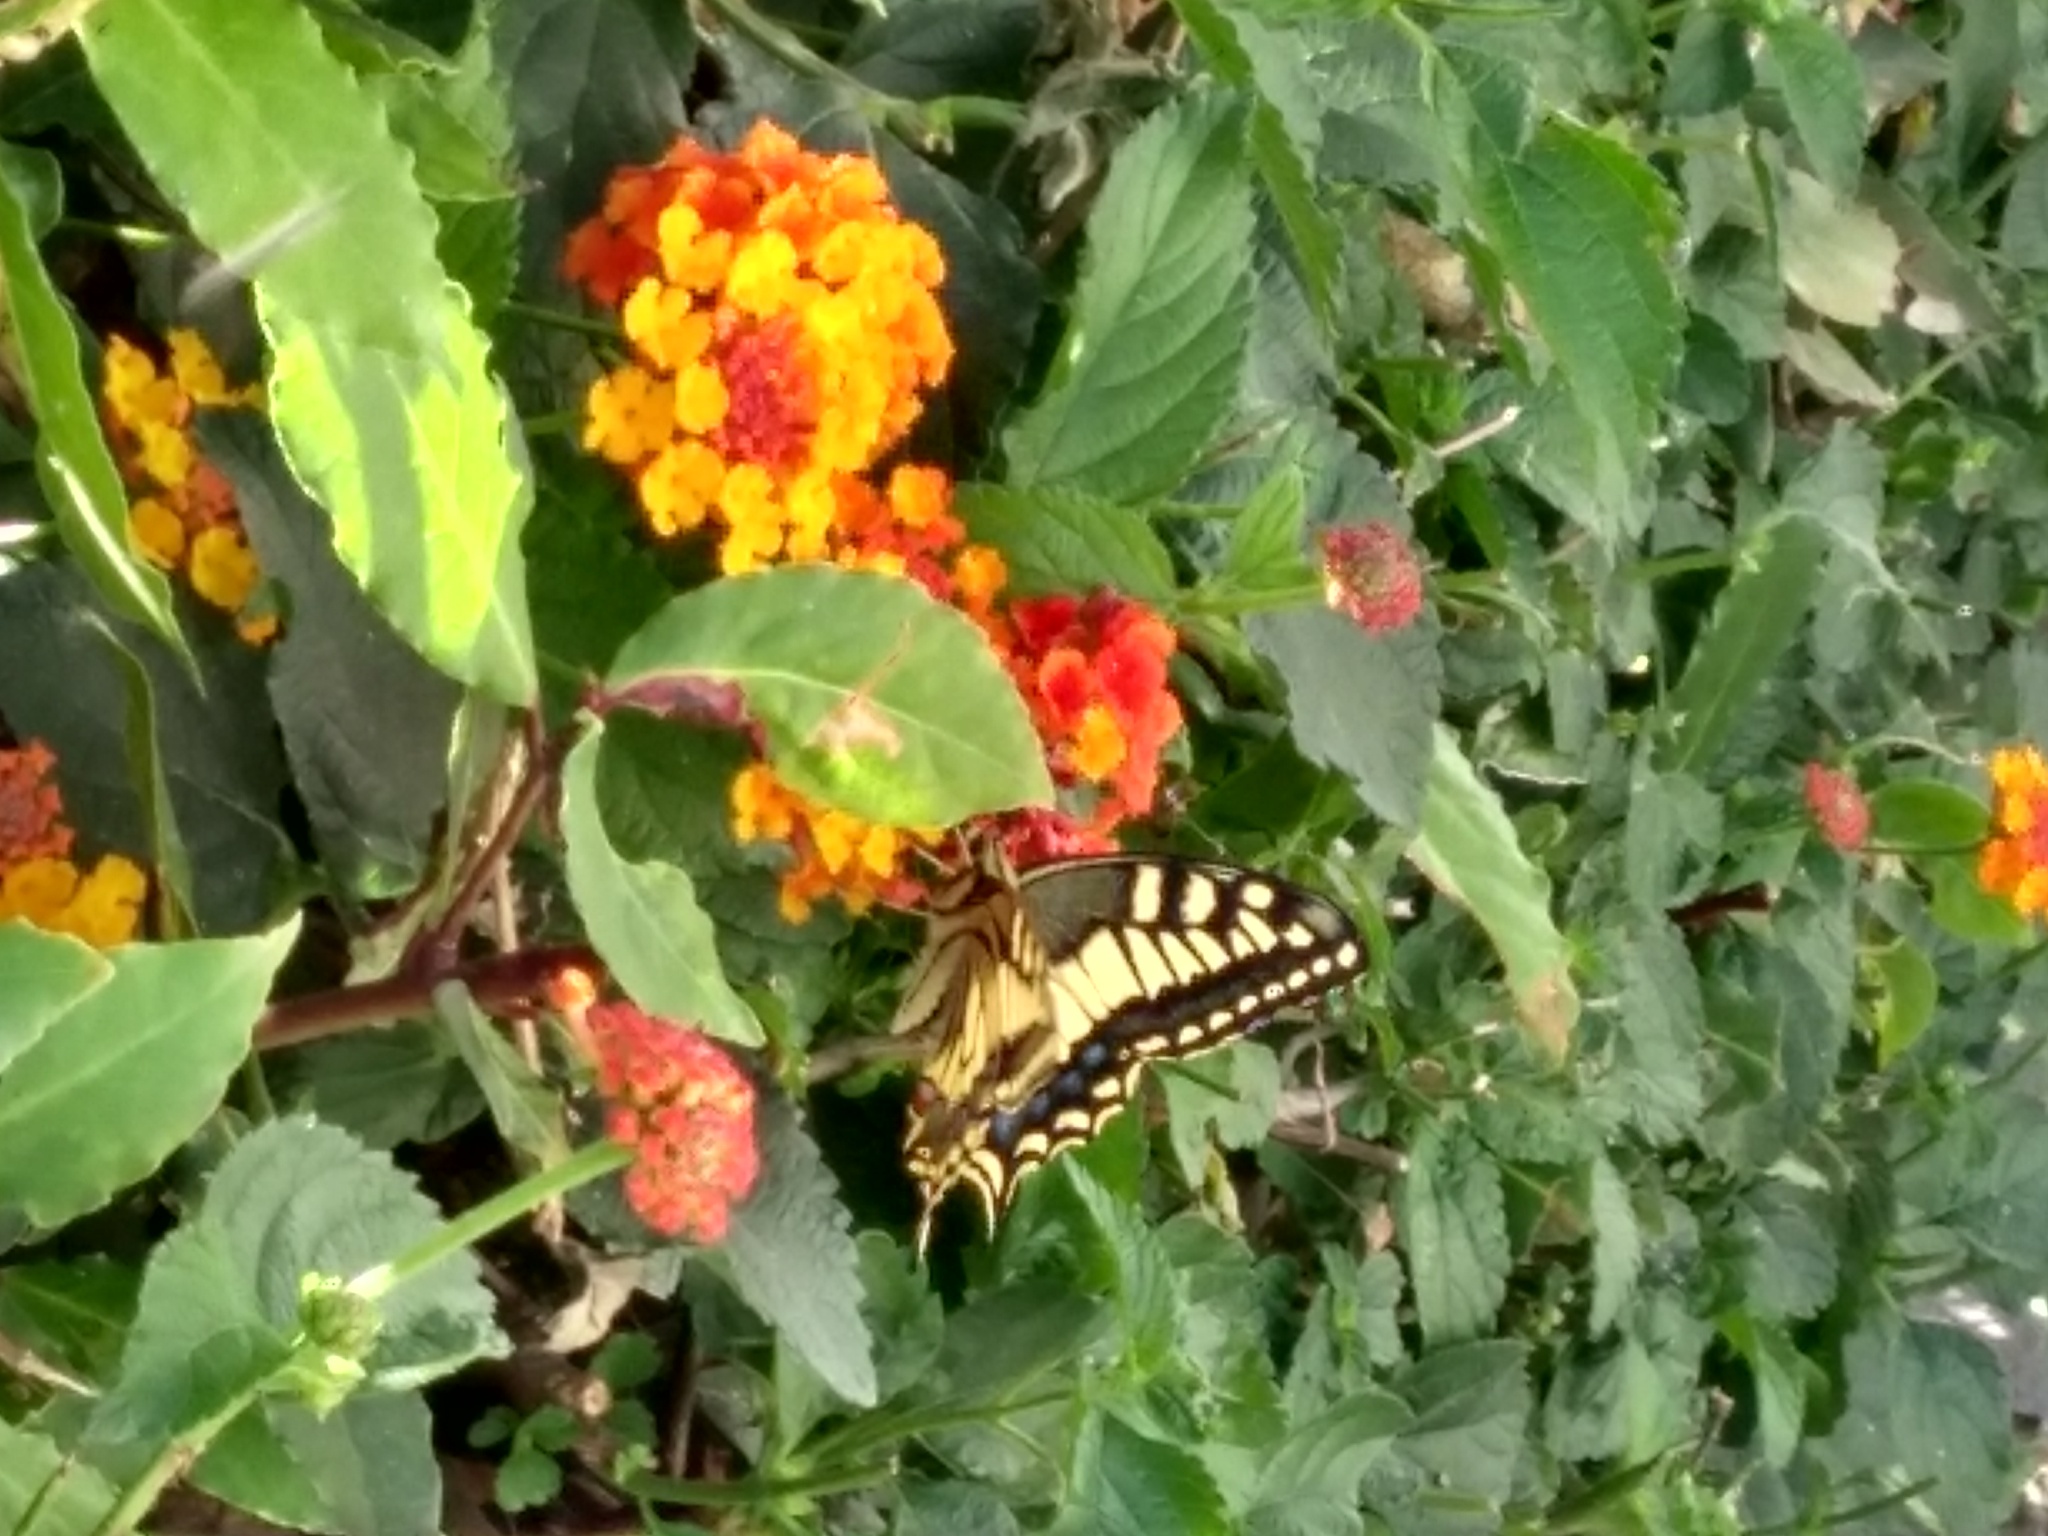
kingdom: Animalia
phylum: Arthropoda
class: Insecta
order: Lepidoptera
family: Papilionidae
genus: Papilio
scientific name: Papilio machaon
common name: Swallowtail
